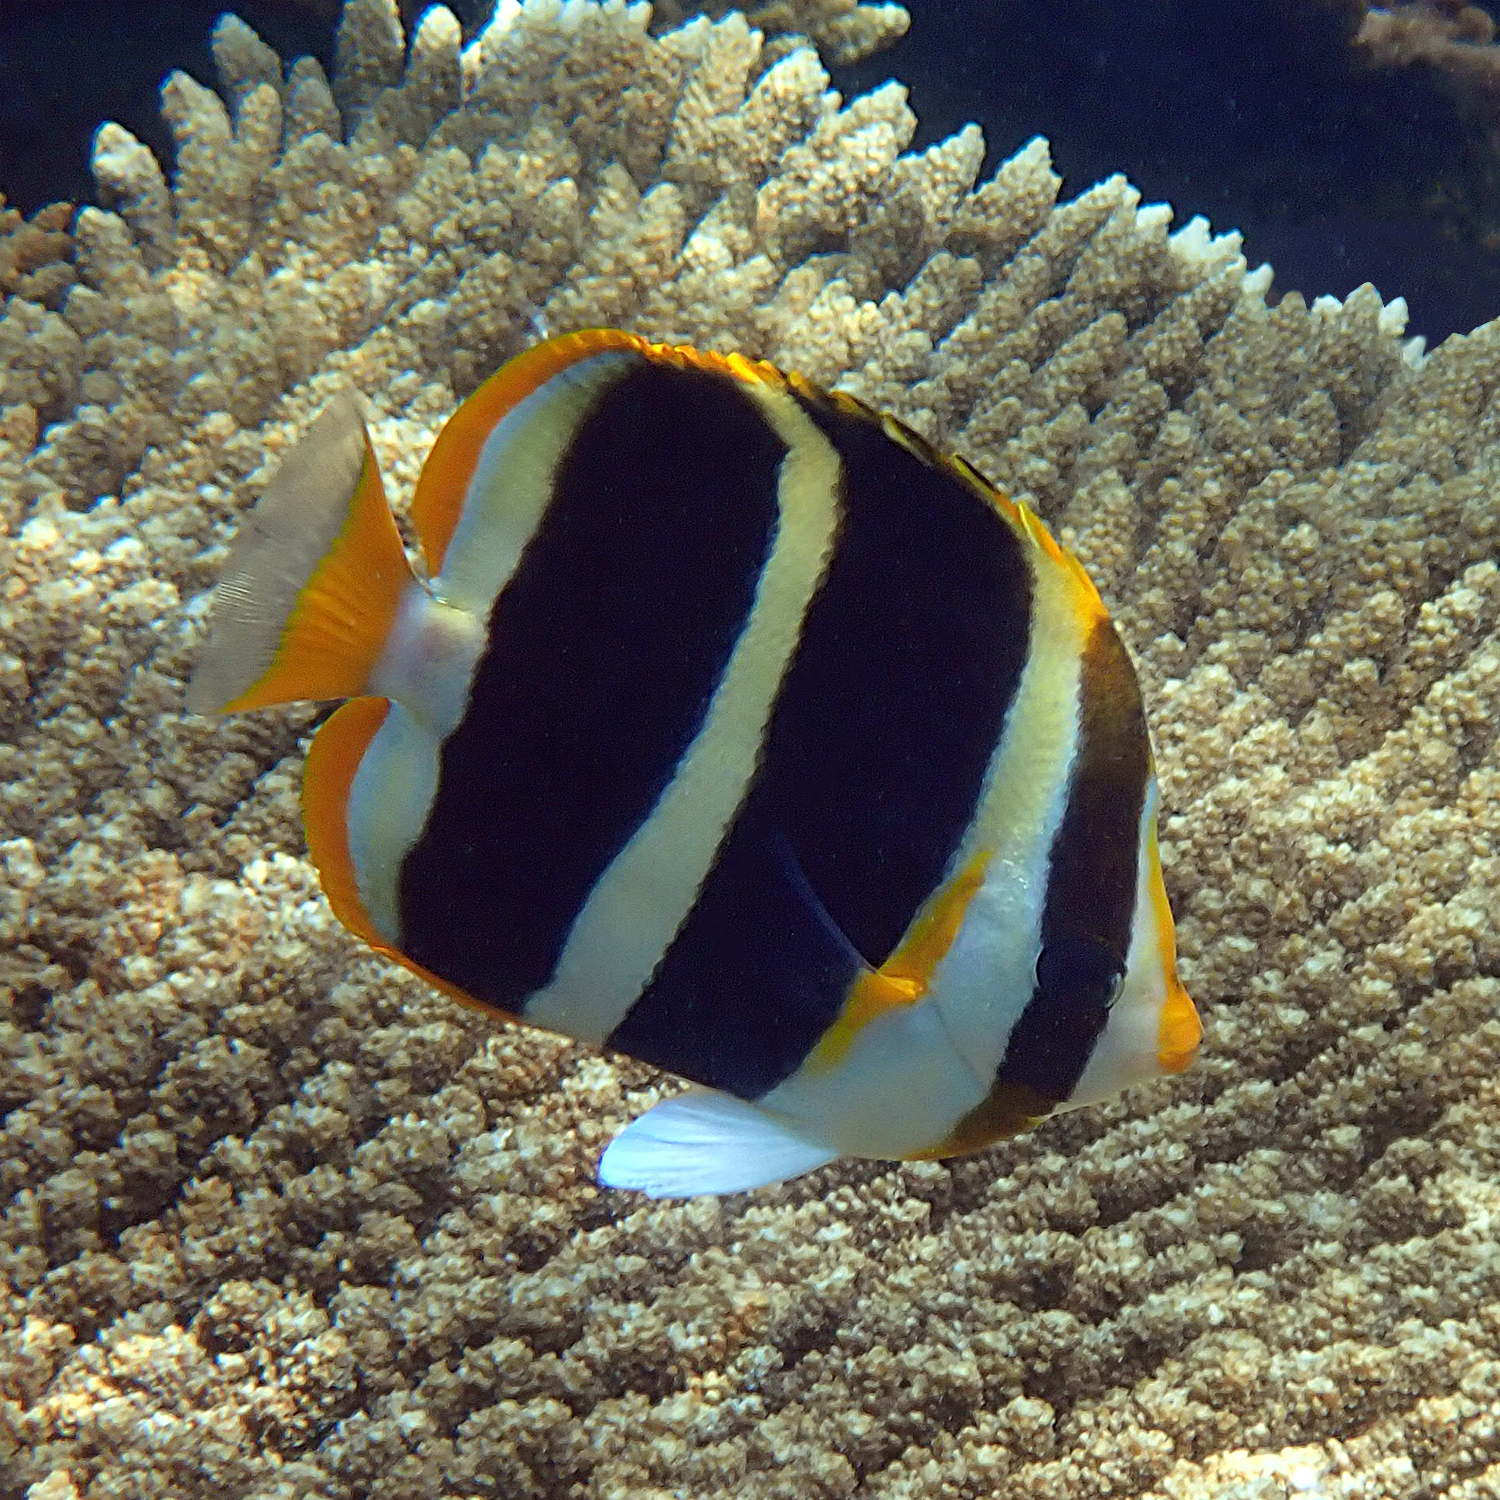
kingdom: Animalia
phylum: Chordata
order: Perciformes
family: Chaetodontidae
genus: Chaetodon
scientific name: Chaetodon tricinctus
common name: Three-striped butterflyfish
